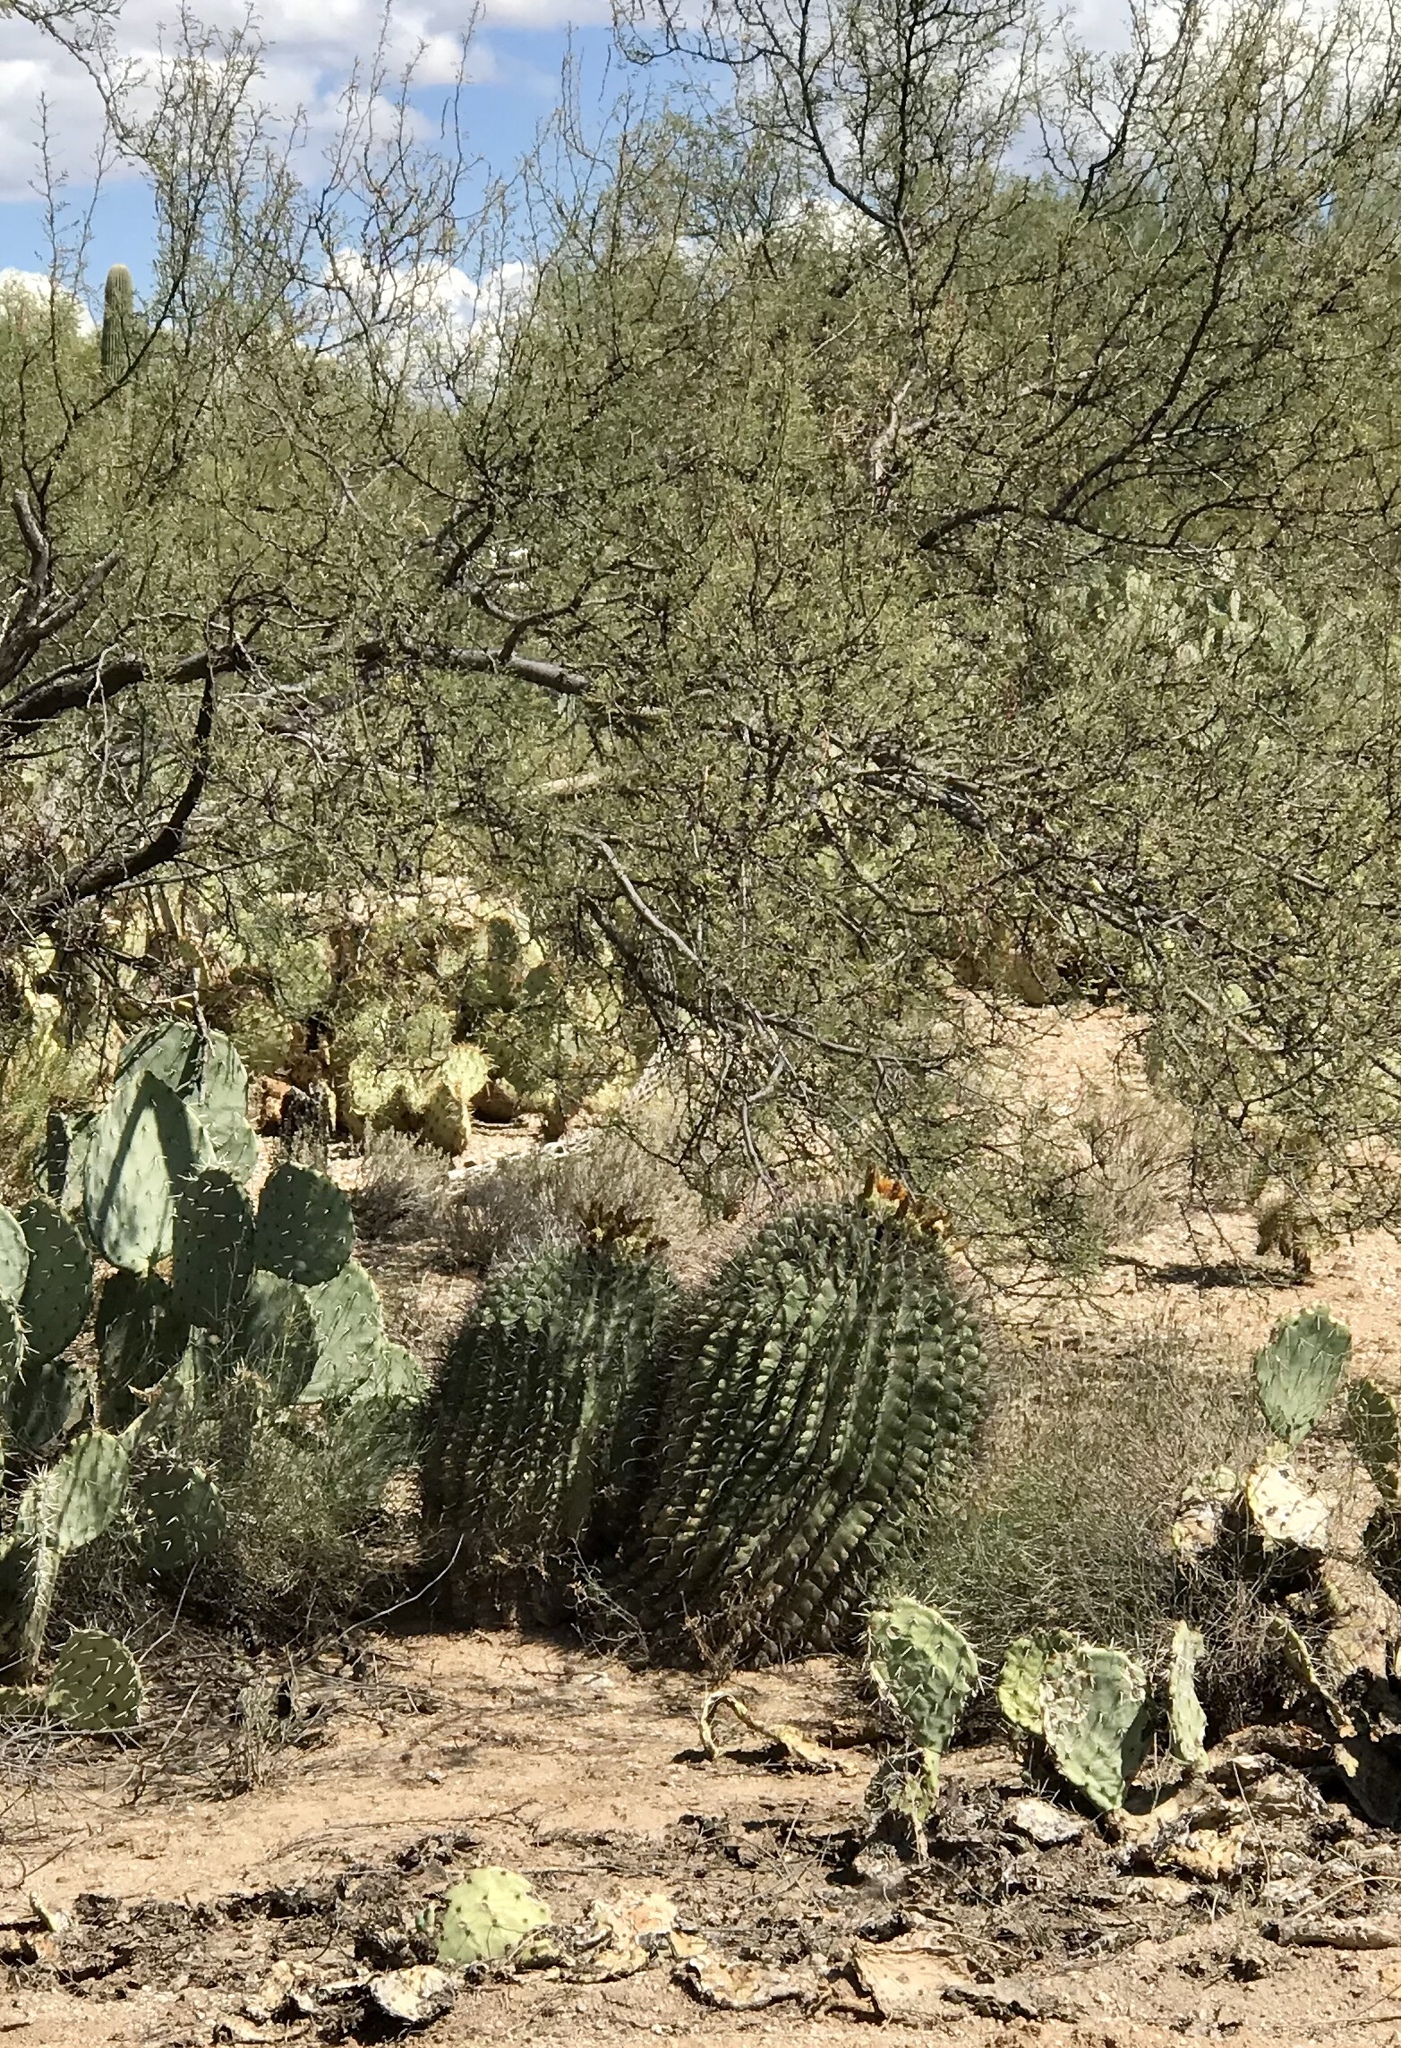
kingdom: Plantae
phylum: Tracheophyta
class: Magnoliopsida
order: Caryophyllales
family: Cactaceae
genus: Ferocactus
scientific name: Ferocactus wislizeni
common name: Candy barrel cactus
